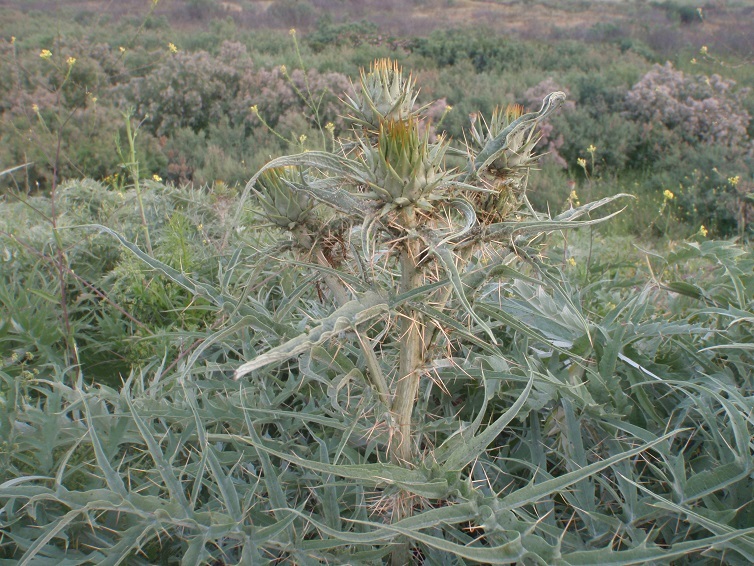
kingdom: Plantae
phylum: Tracheophyta
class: Magnoliopsida
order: Asterales
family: Asteraceae
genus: Cynara
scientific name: Cynara cardunculus
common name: Globe artichoke
